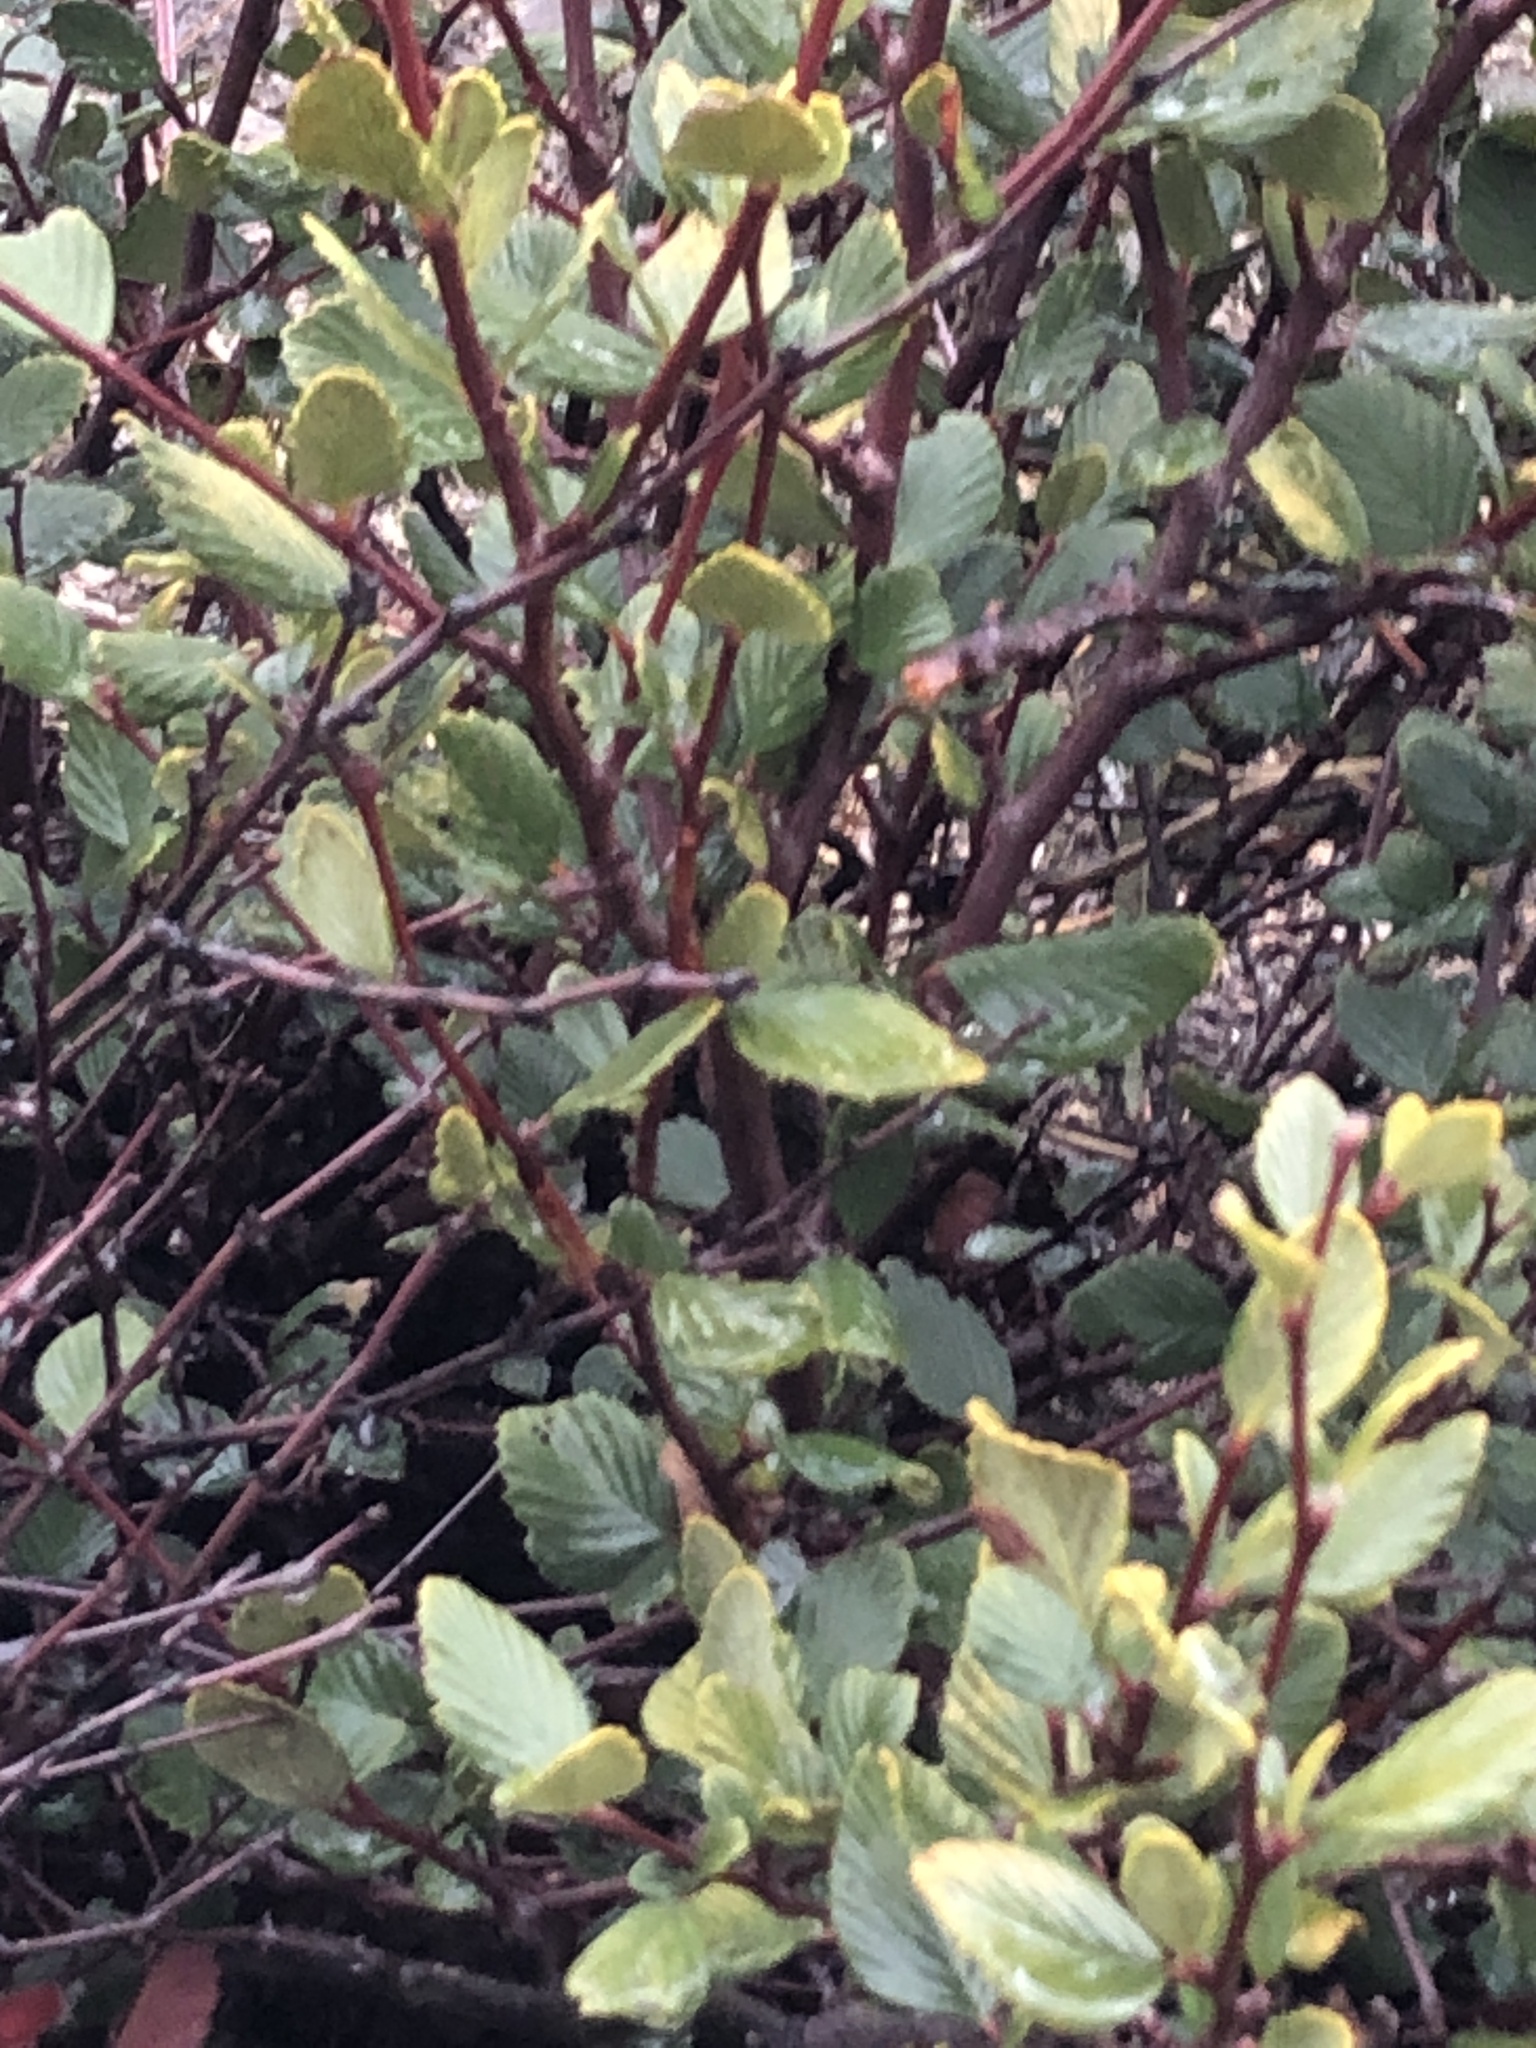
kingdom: Plantae
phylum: Tracheophyta
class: Magnoliopsida
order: Rosales
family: Rosaceae
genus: Cercocarpus
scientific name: Cercocarpus betuloides
